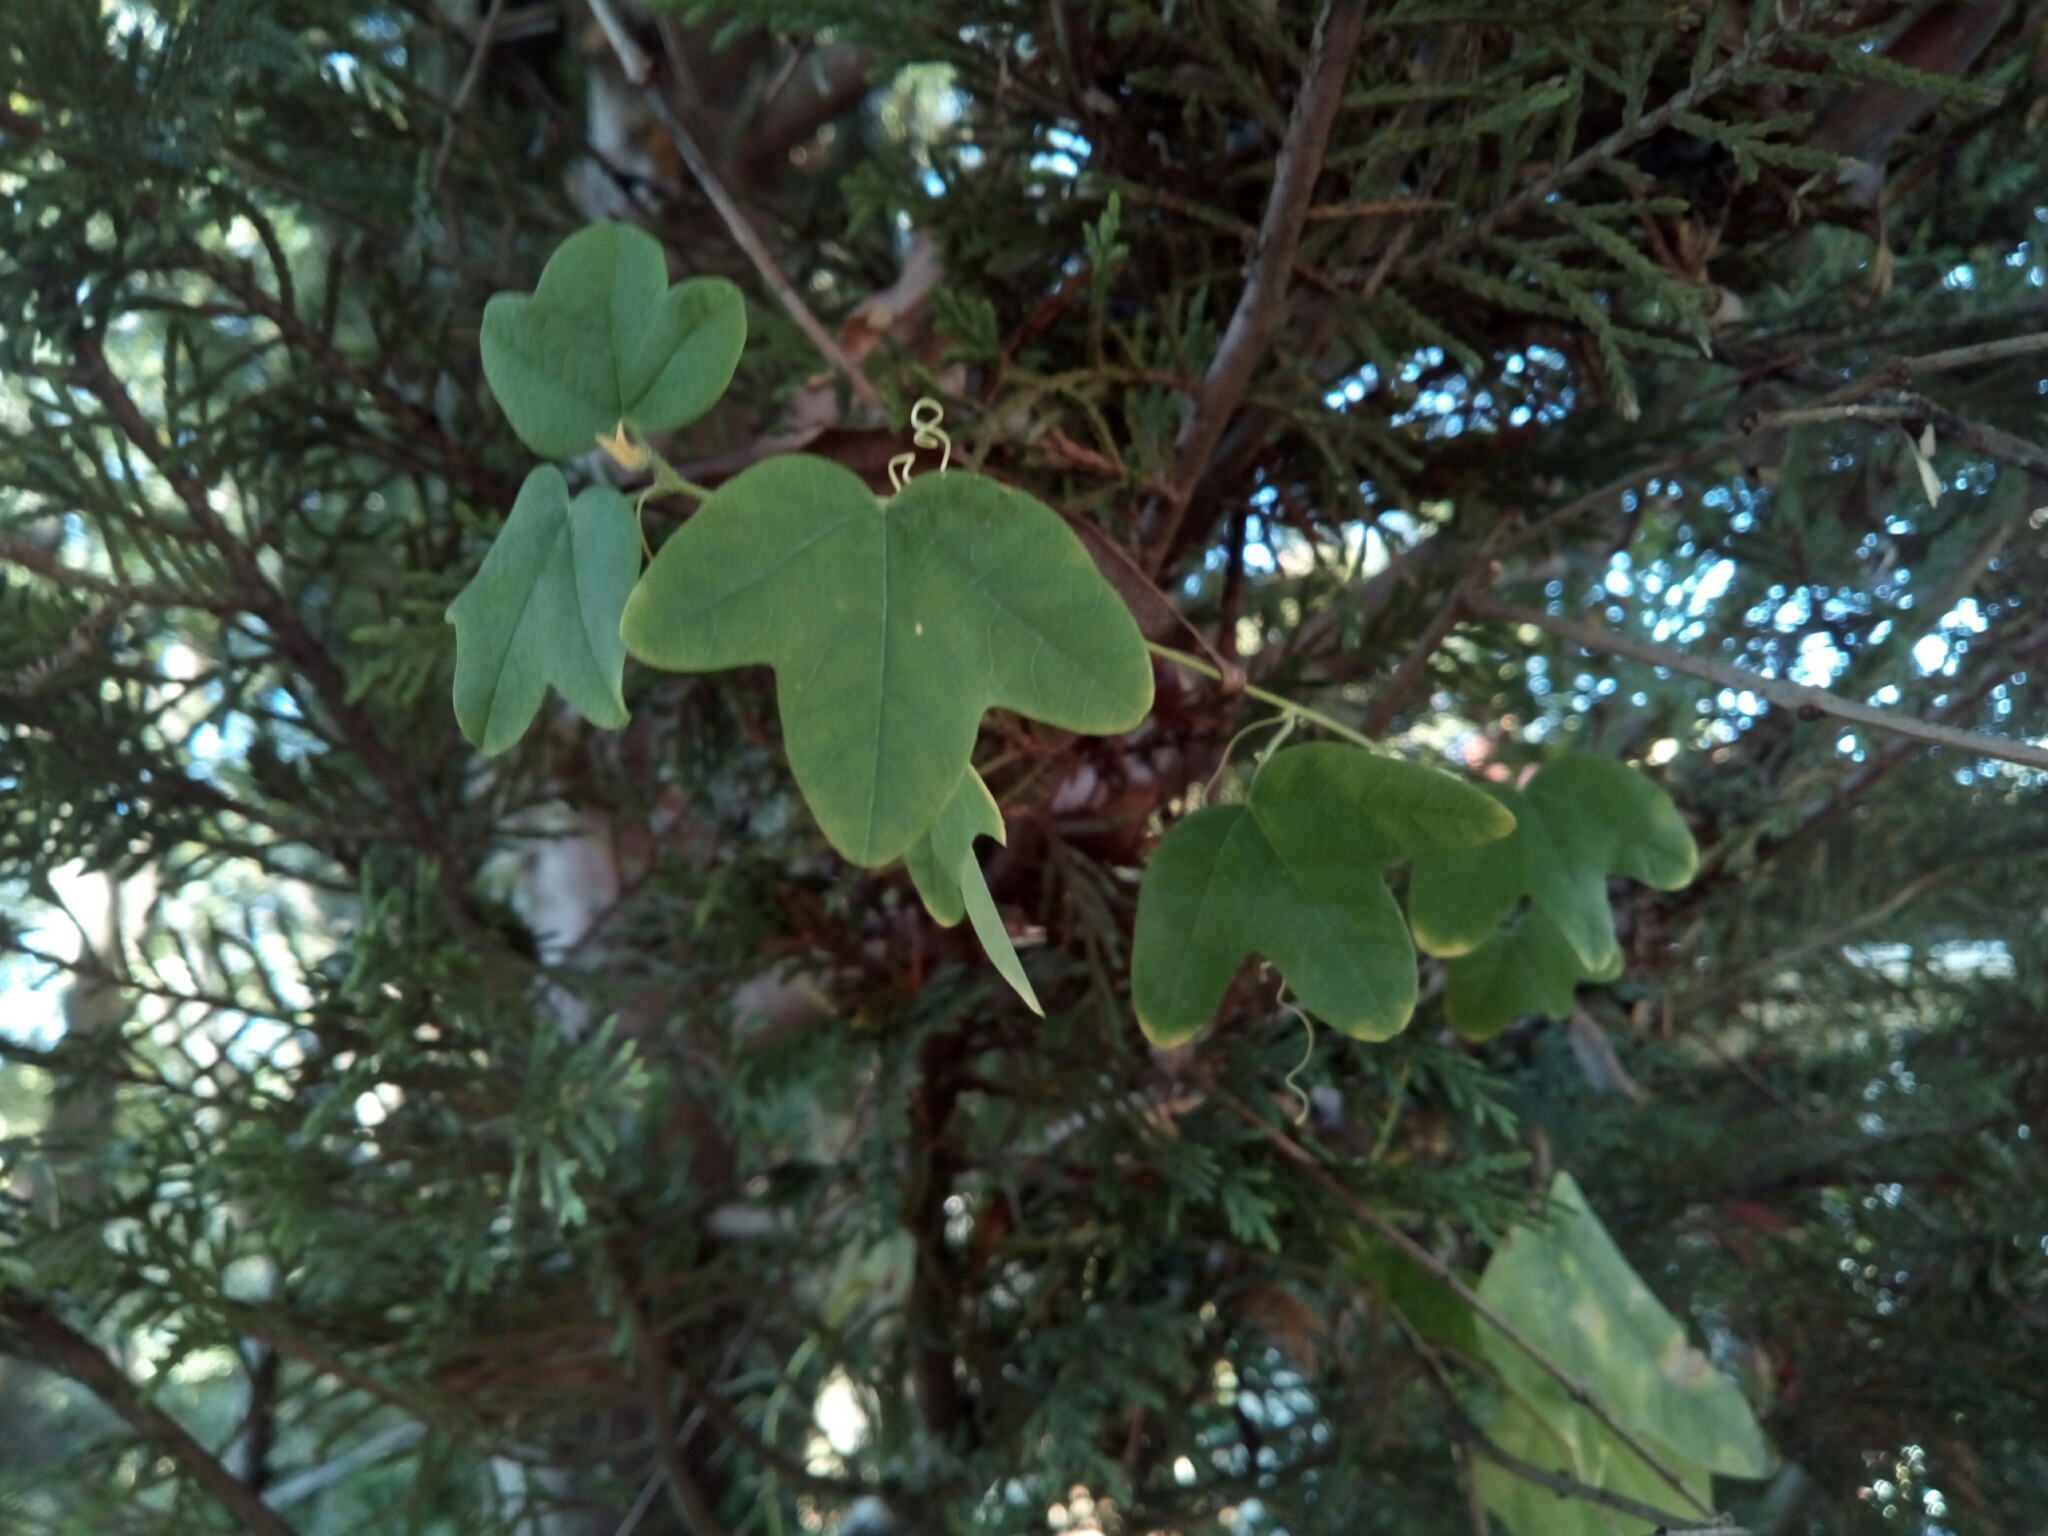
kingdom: Plantae
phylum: Tracheophyta
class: Magnoliopsida
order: Malpighiales
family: Passifloraceae
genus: Passiflora
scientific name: Passiflora lutea
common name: Yellow passionflower
